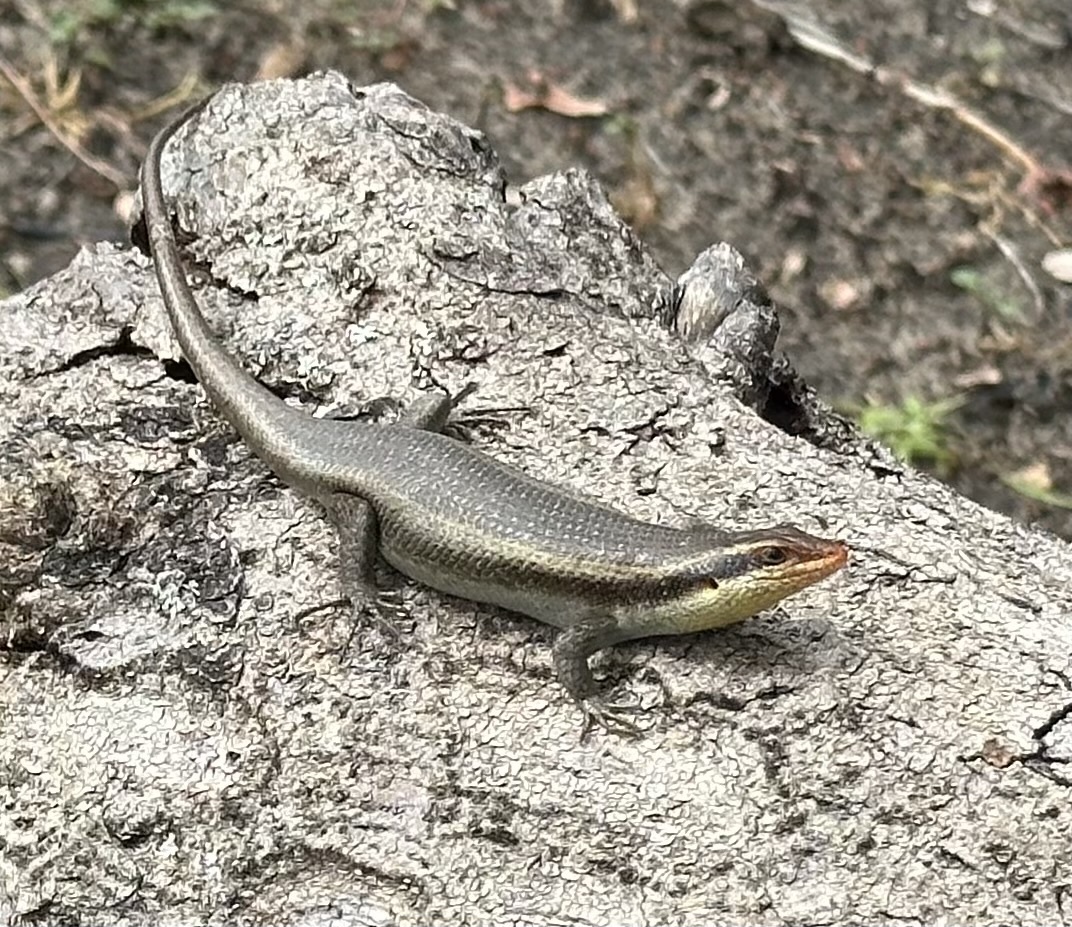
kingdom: Animalia
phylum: Chordata
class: Squamata
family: Scincidae
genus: Trachylepis
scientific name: Trachylepis wahlbergii
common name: Wahlberg’s striped skink
